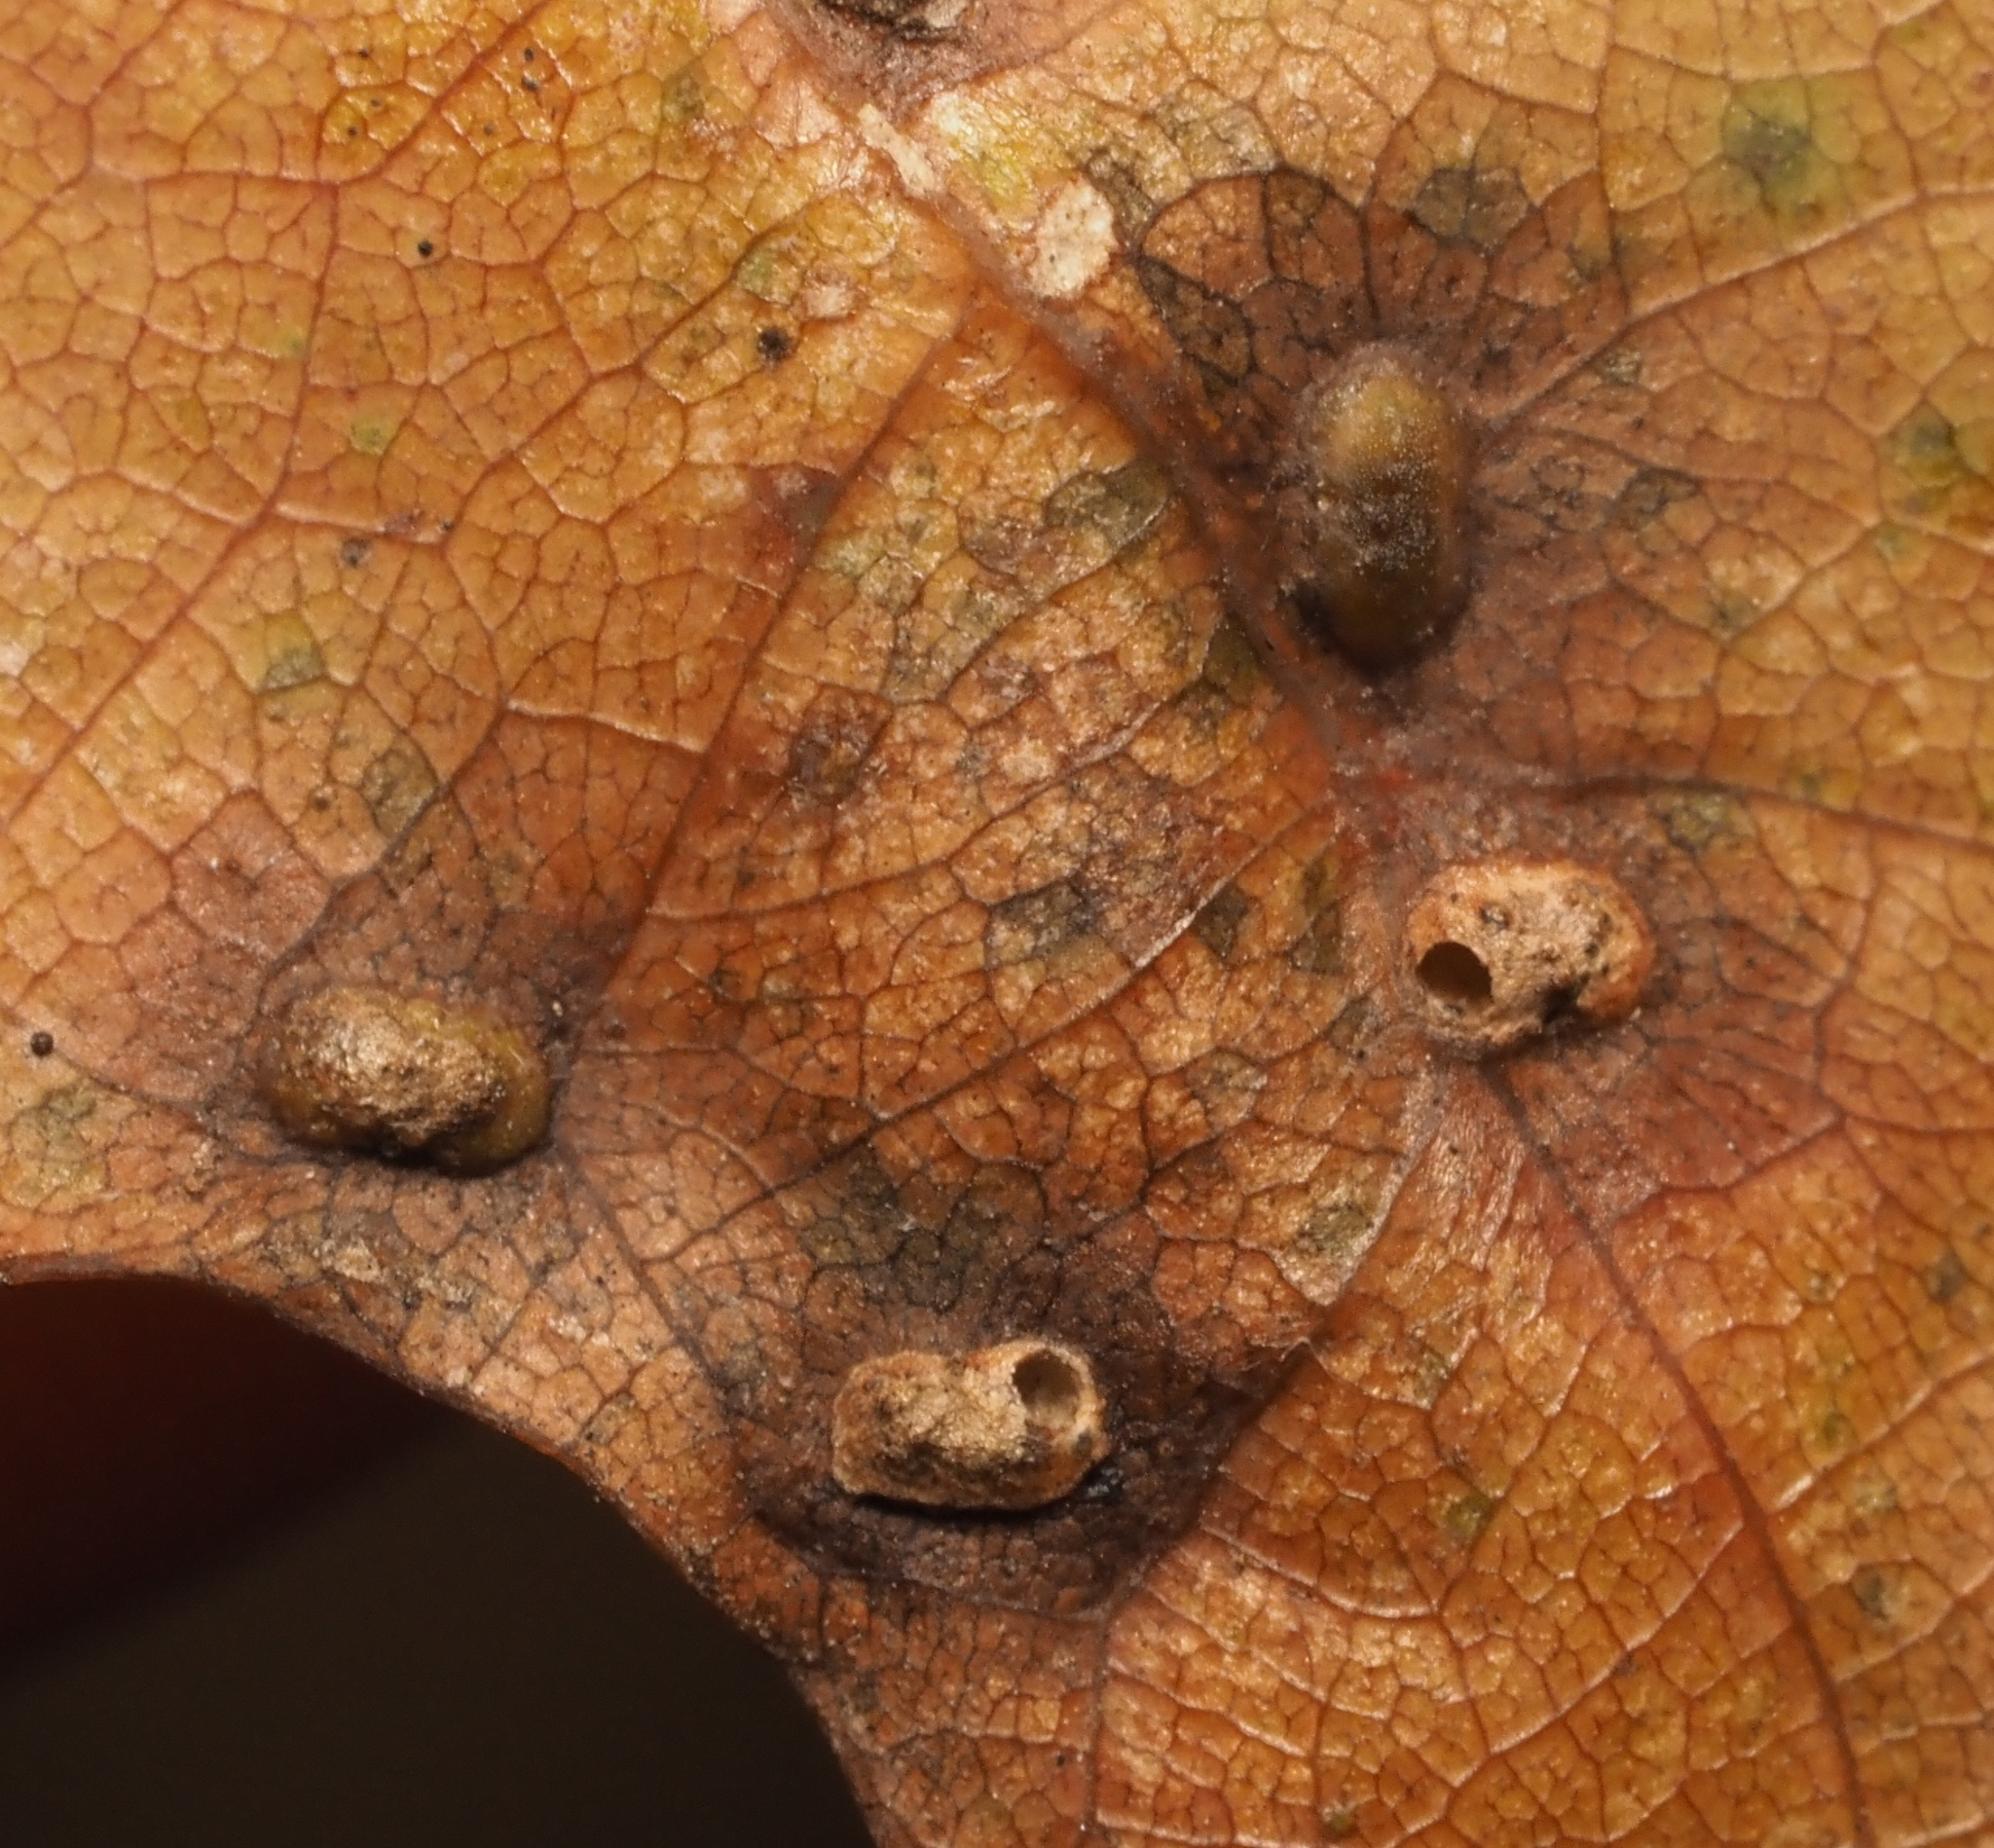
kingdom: Animalia
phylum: Arthropoda
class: Insecta
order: Hymenoptera
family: Cynipidae
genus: Neuroterus
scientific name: Neuroterus quercusverrucarum
